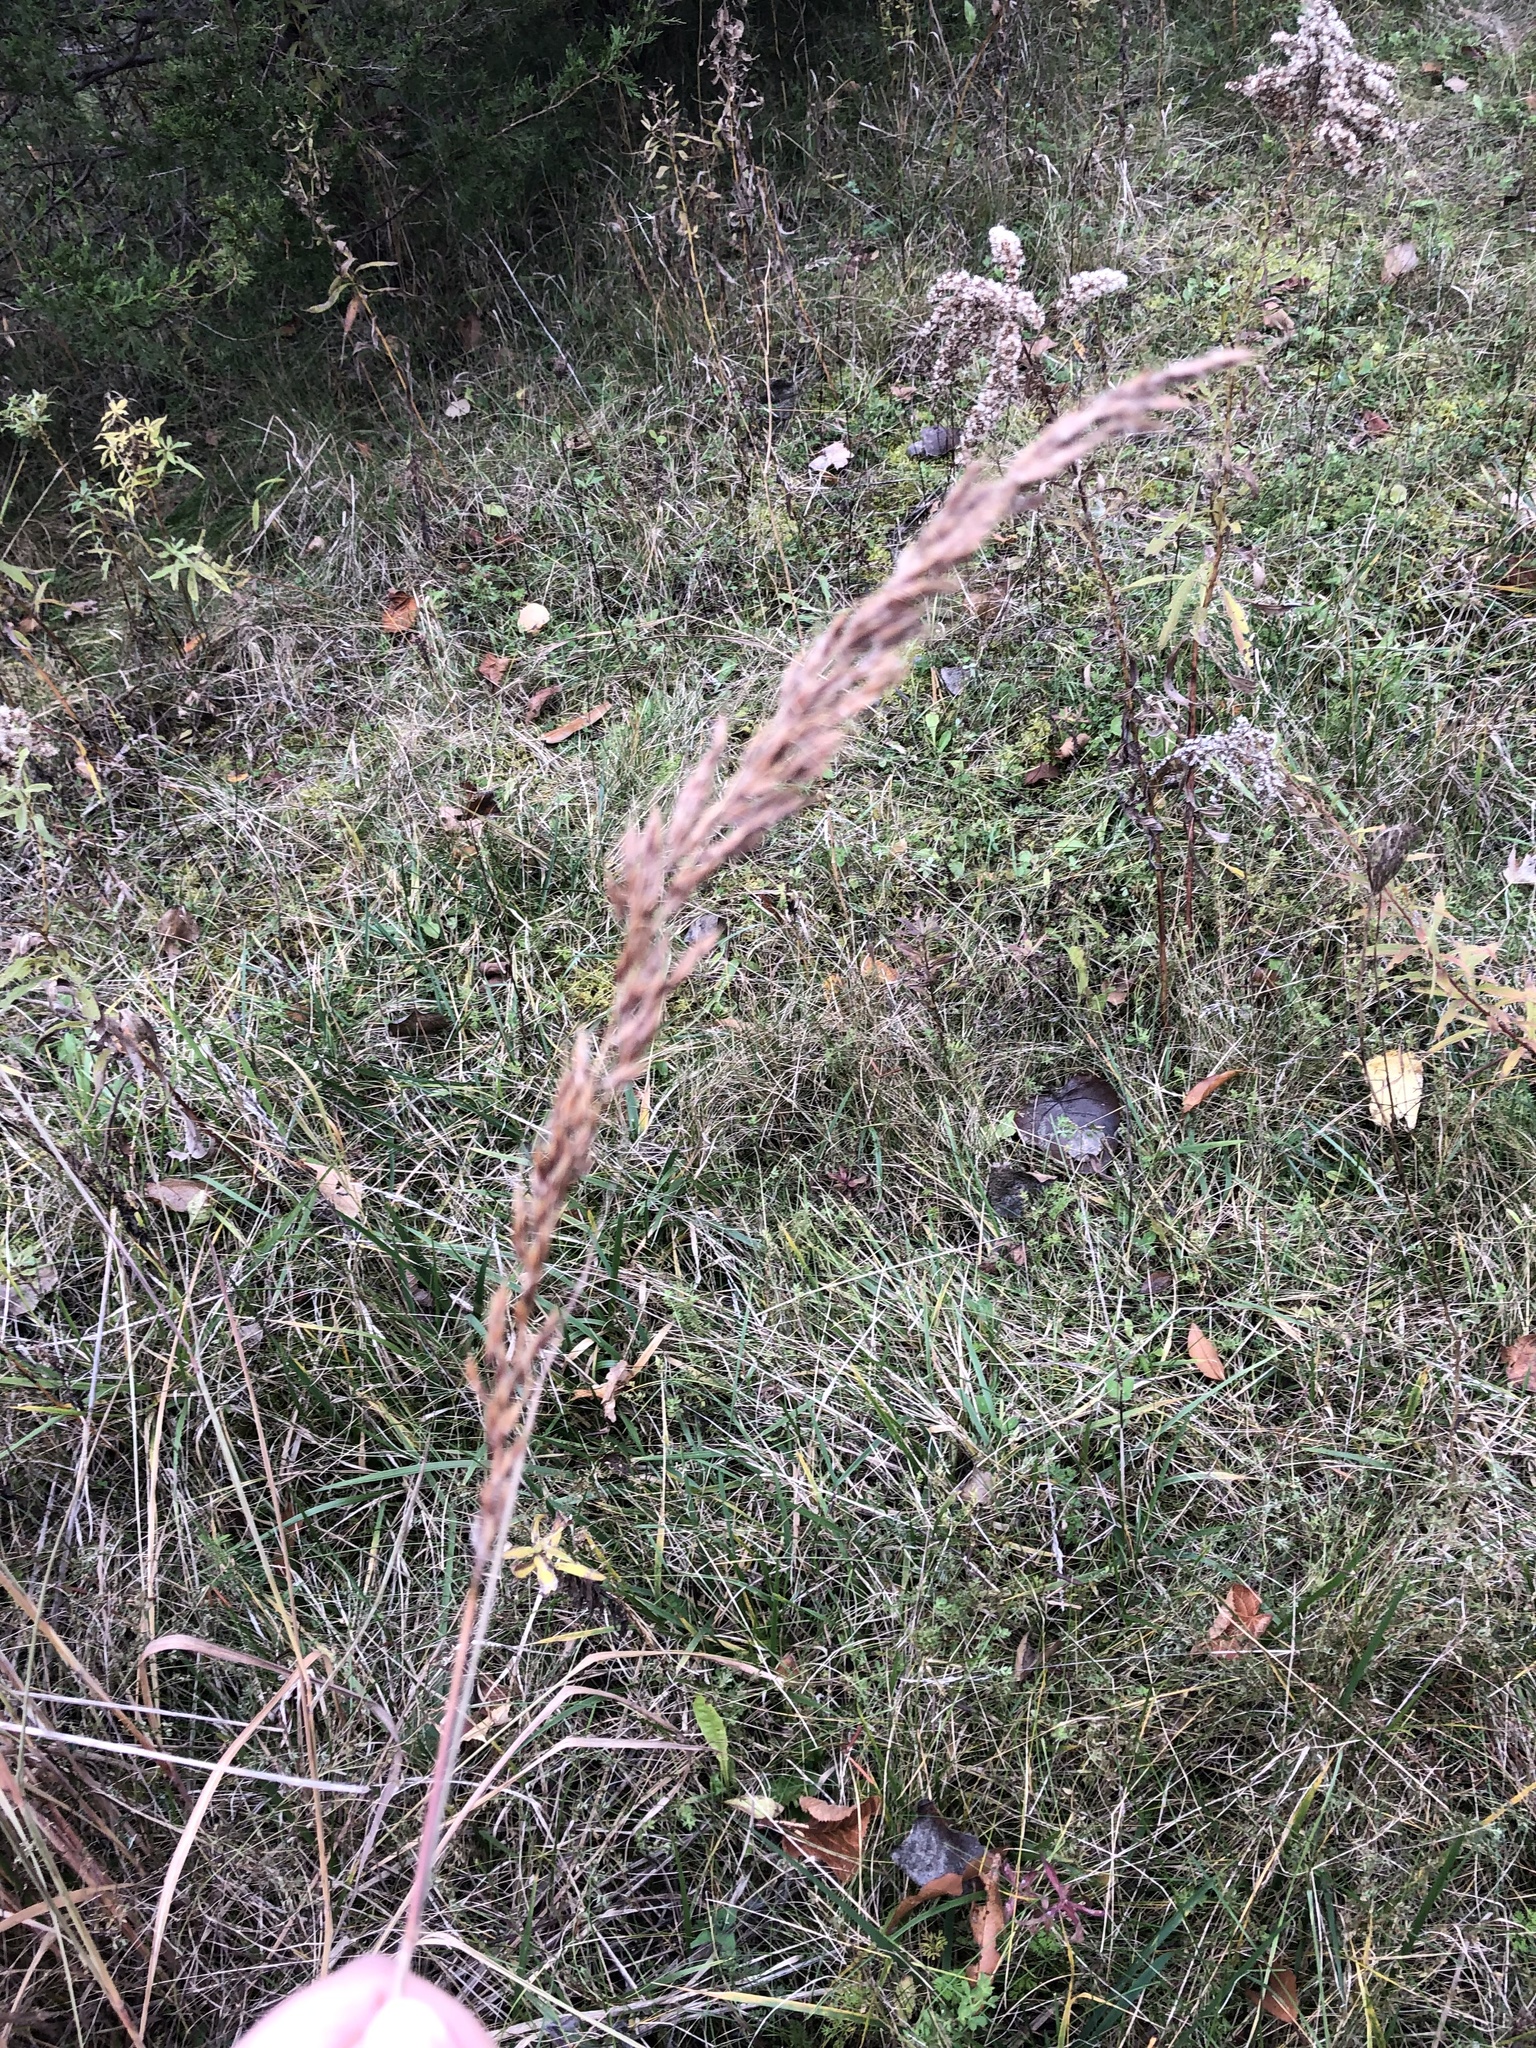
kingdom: Plantae
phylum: Tracheophyta
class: Liliopsida
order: Poales
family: Poaceae
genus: Sorghastrum
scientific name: Sorghastrum nutans
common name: Indian grass
